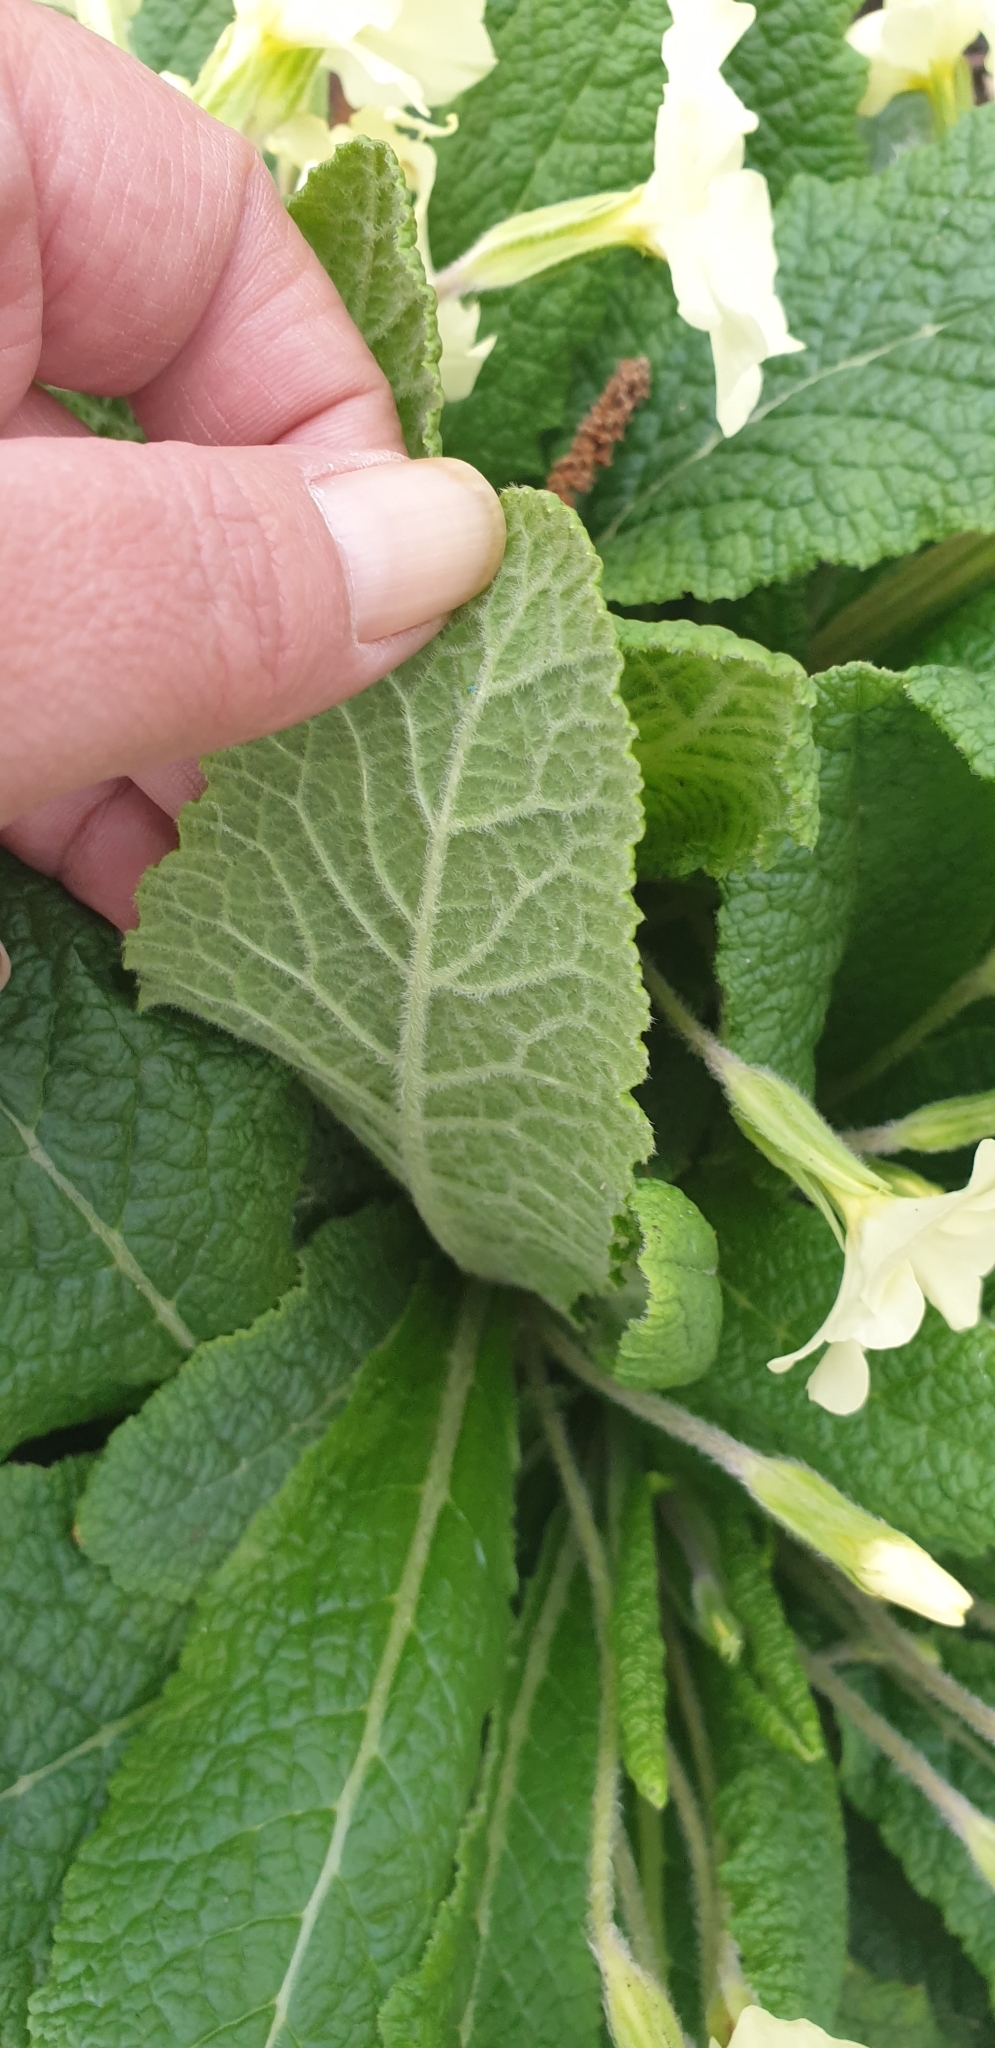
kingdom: Plantae
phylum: Tracheophyta
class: Magnoliopsida
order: Ericales
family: Primulaceae
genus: Primula
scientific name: Primula vulgaris
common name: Primrose
